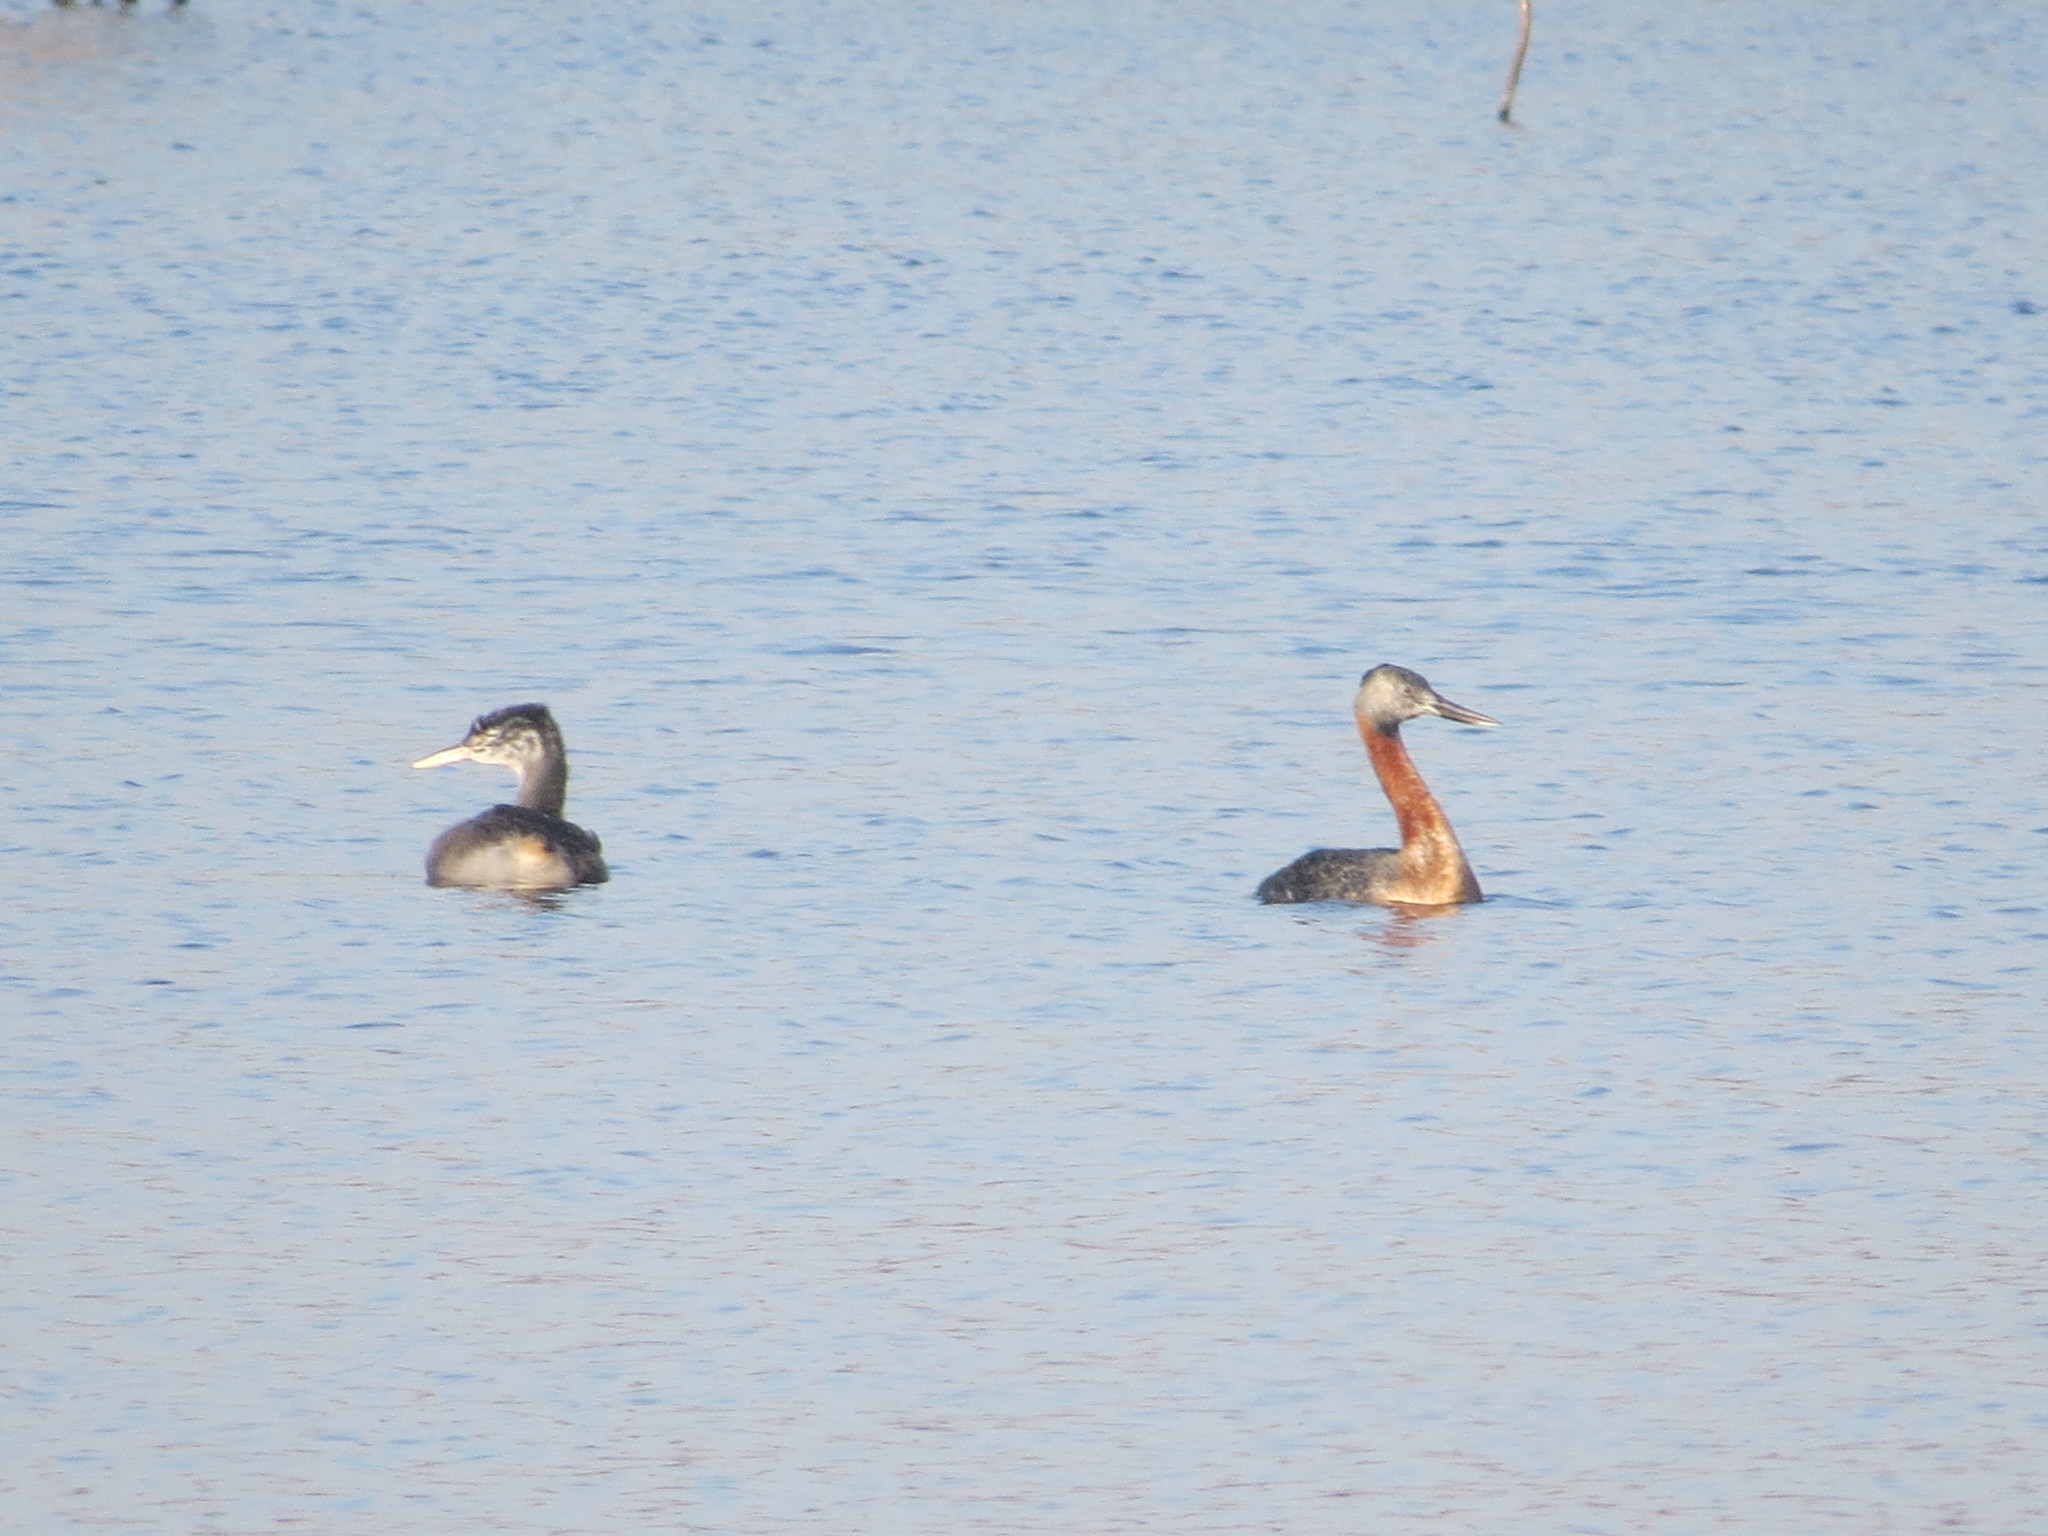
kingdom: Animalia
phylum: Chordata
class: Aves
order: Podicipediformes
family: Podicipedidae
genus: Podiceps
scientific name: Podiceps major
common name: Great grebe
